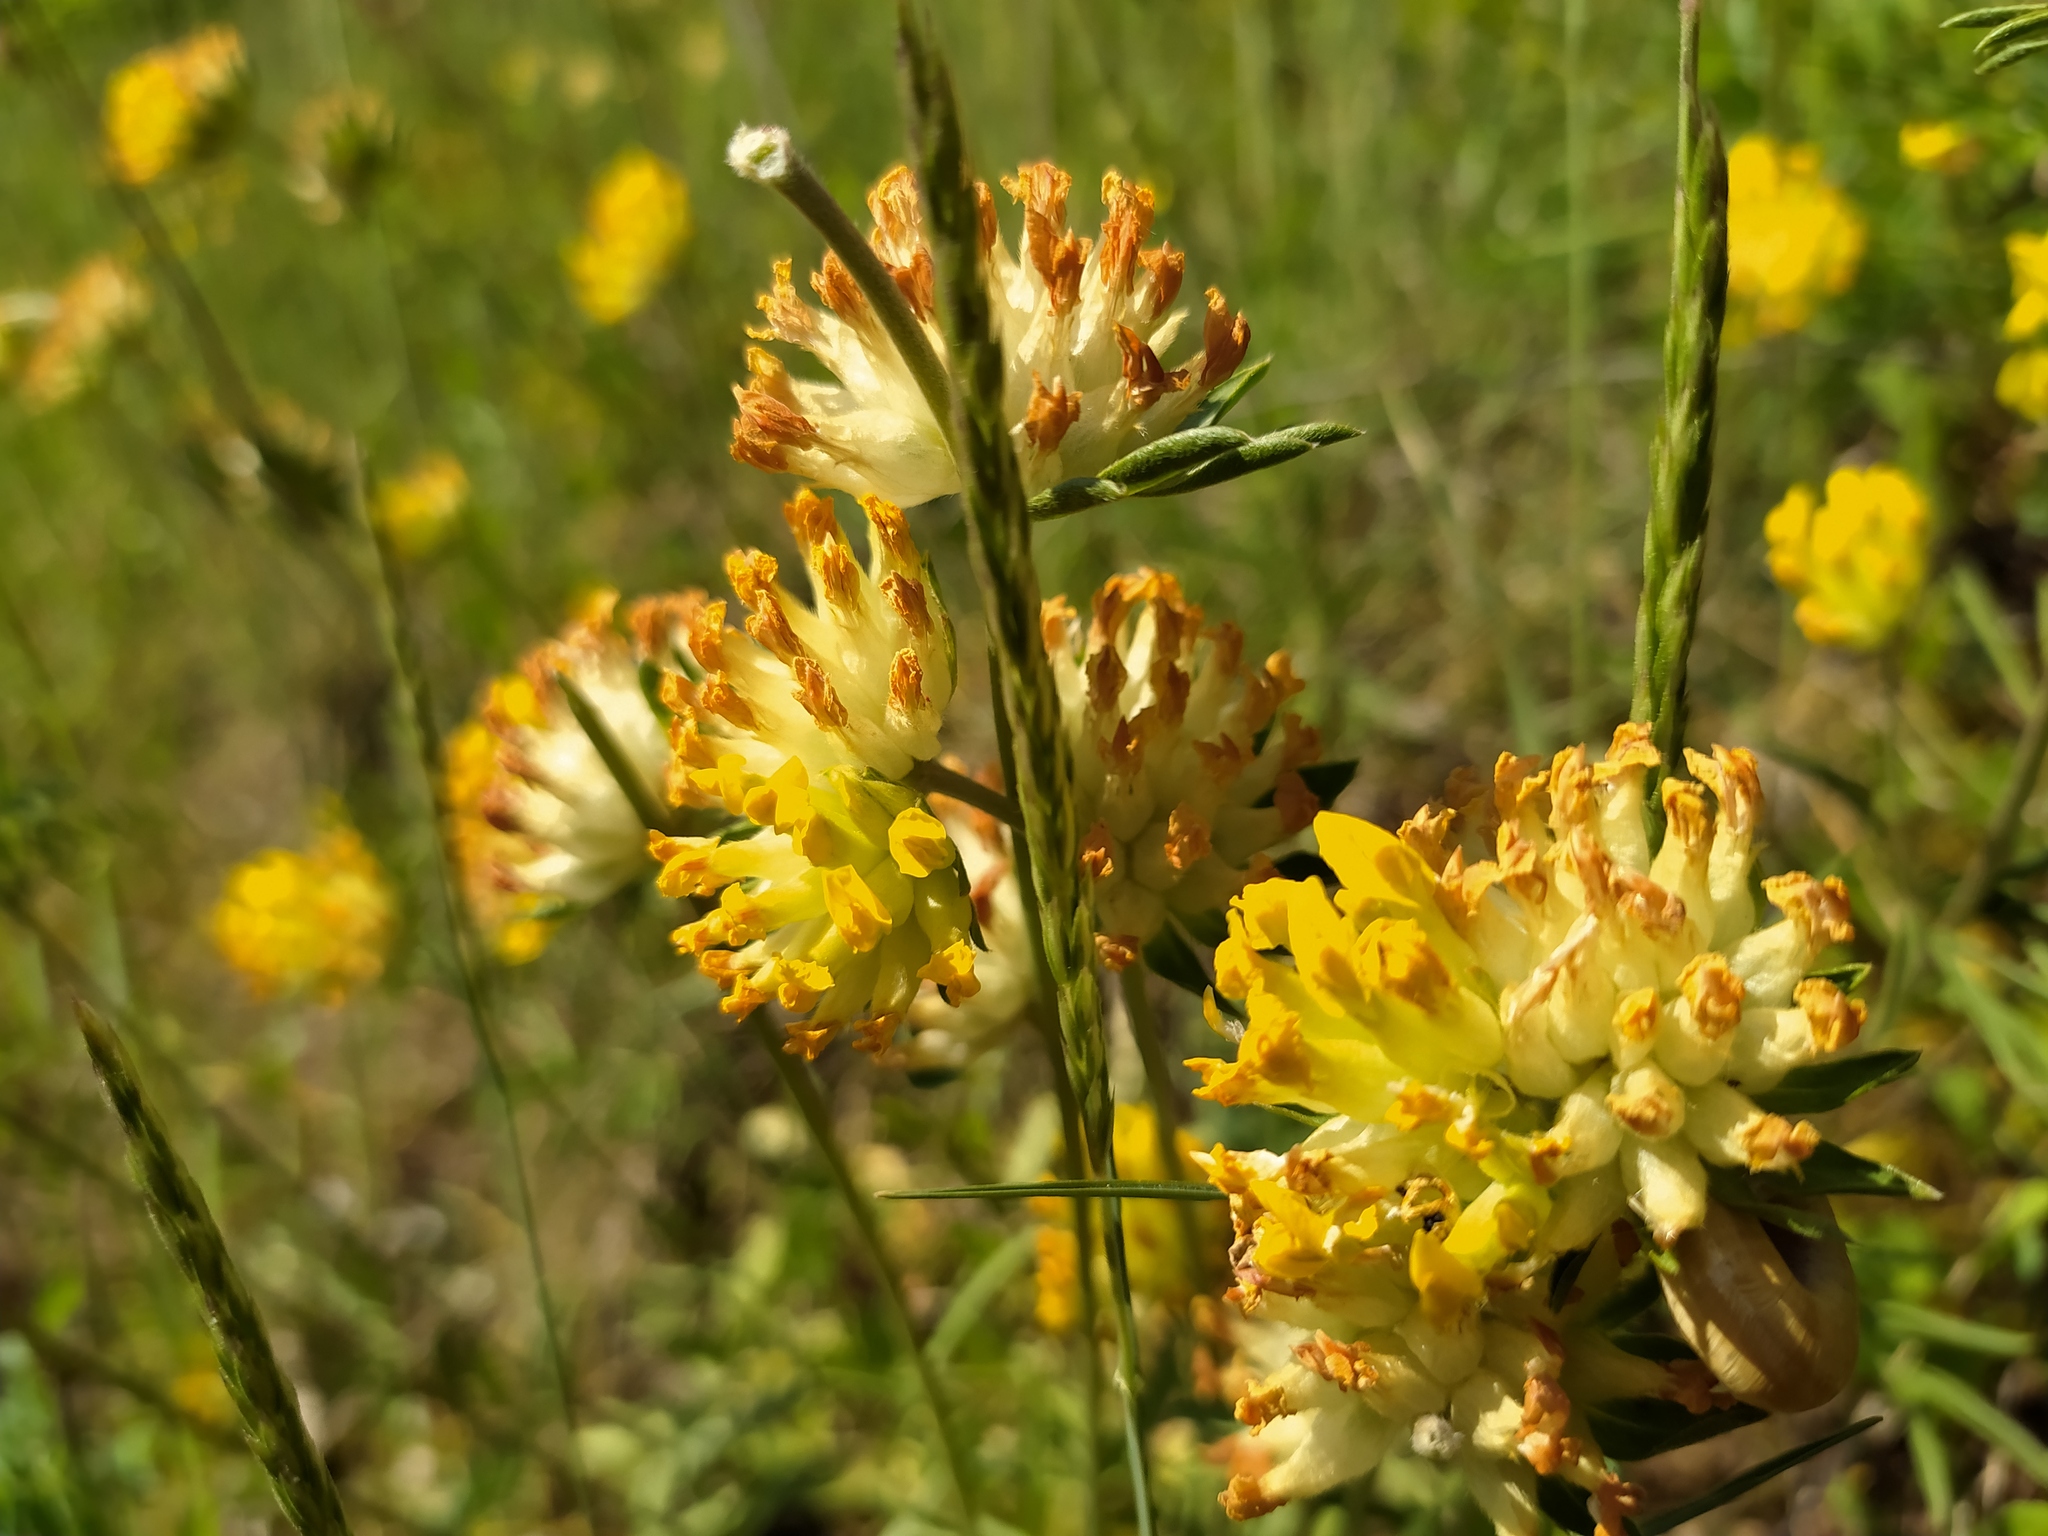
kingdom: Plantae
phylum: Tracheophyta
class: Magnoliopsida
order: Fabales
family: Fabaceae
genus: Anthyllis
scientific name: Anthyllis vulneraria
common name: Kidney vetch
